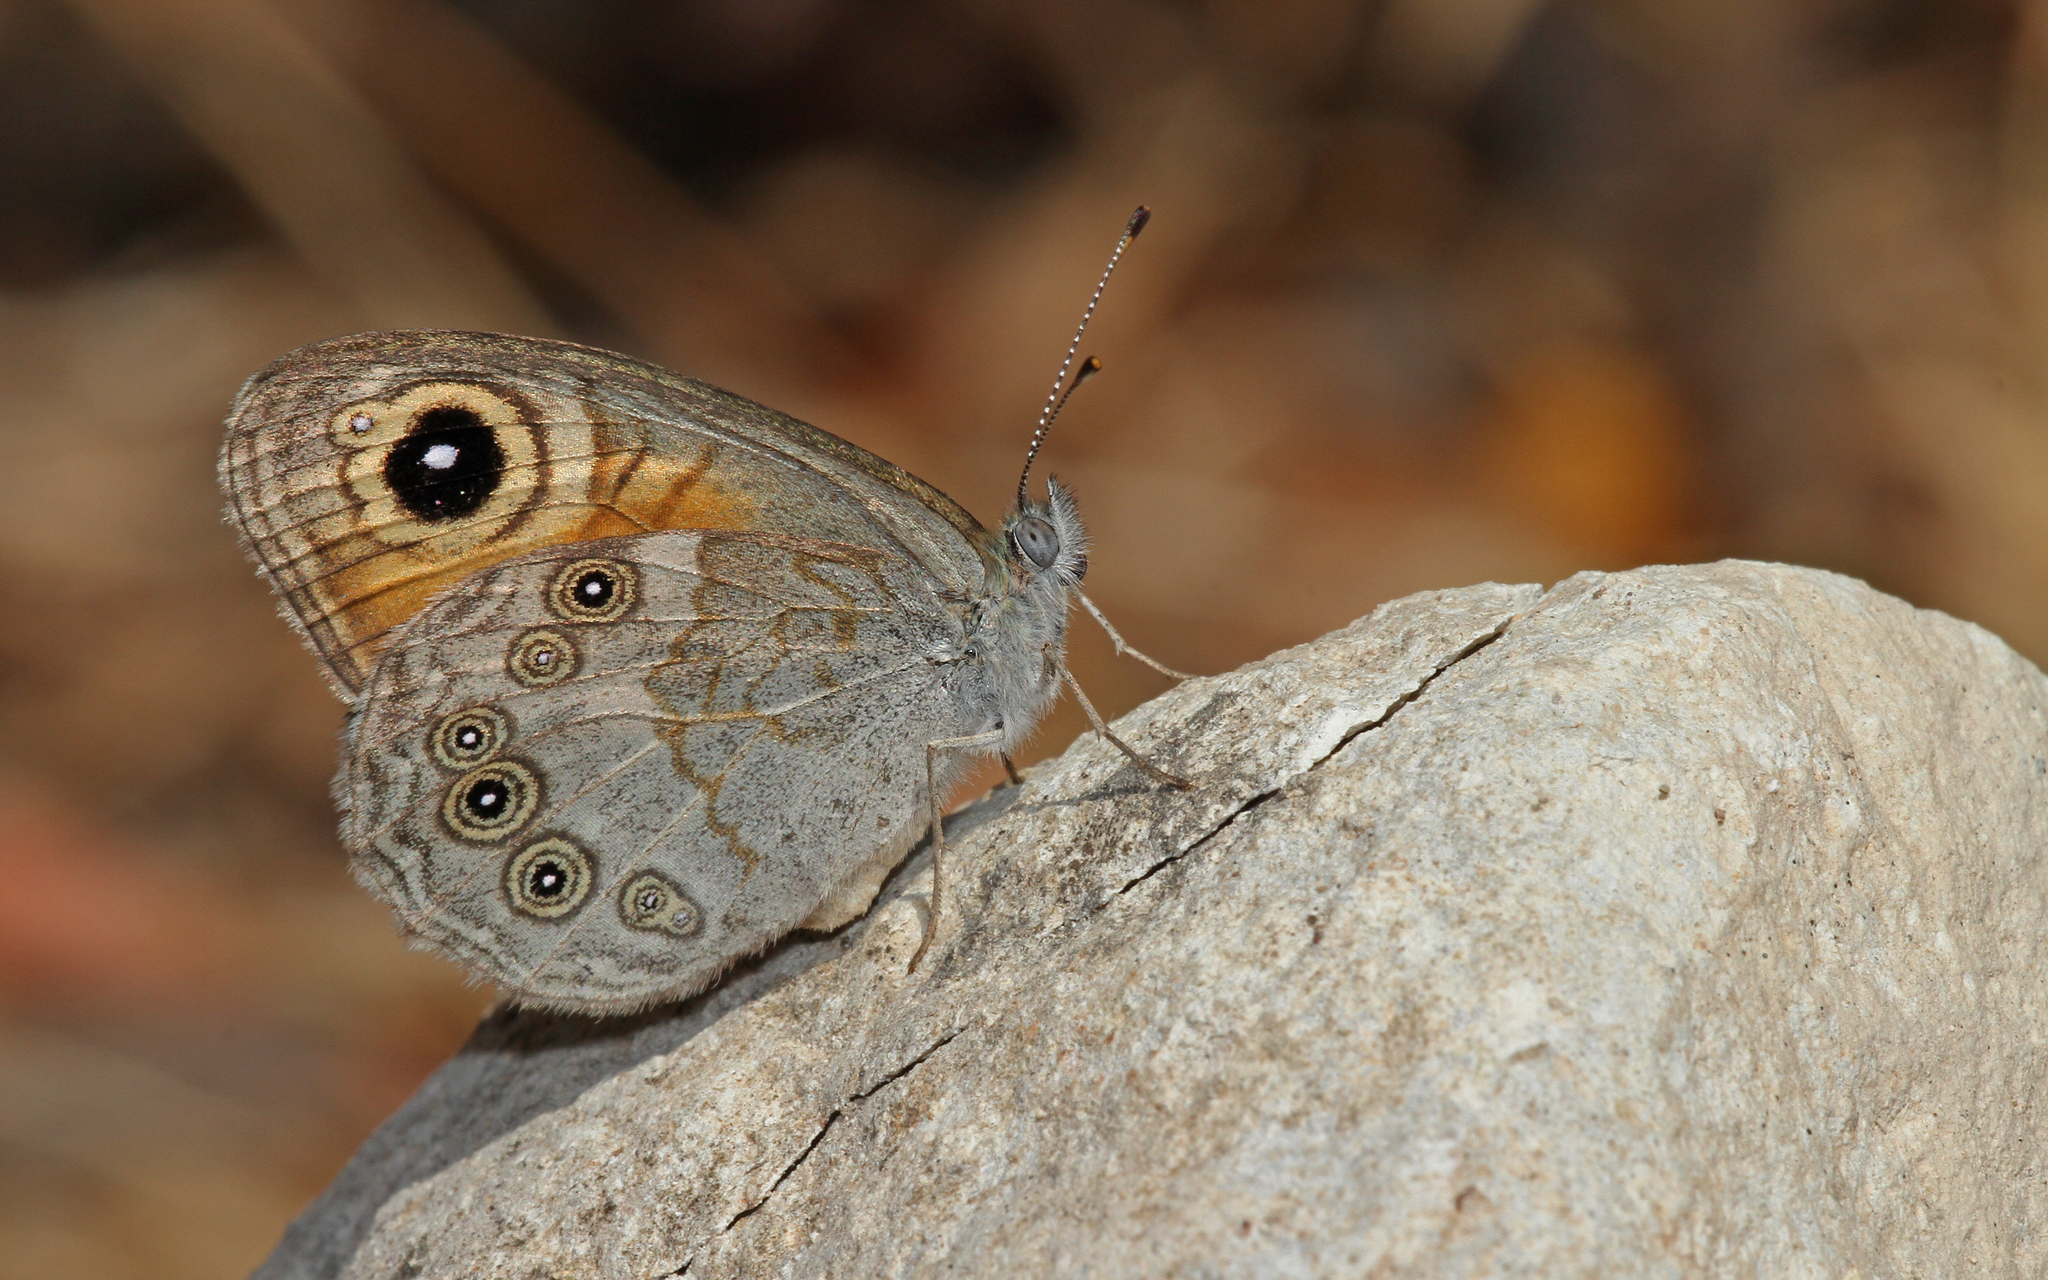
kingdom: Animalia
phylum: Arthropoda
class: Insecta
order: Lepidoptera
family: Nymphalidae
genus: Pararge
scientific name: Pararge Lasiommata maera
